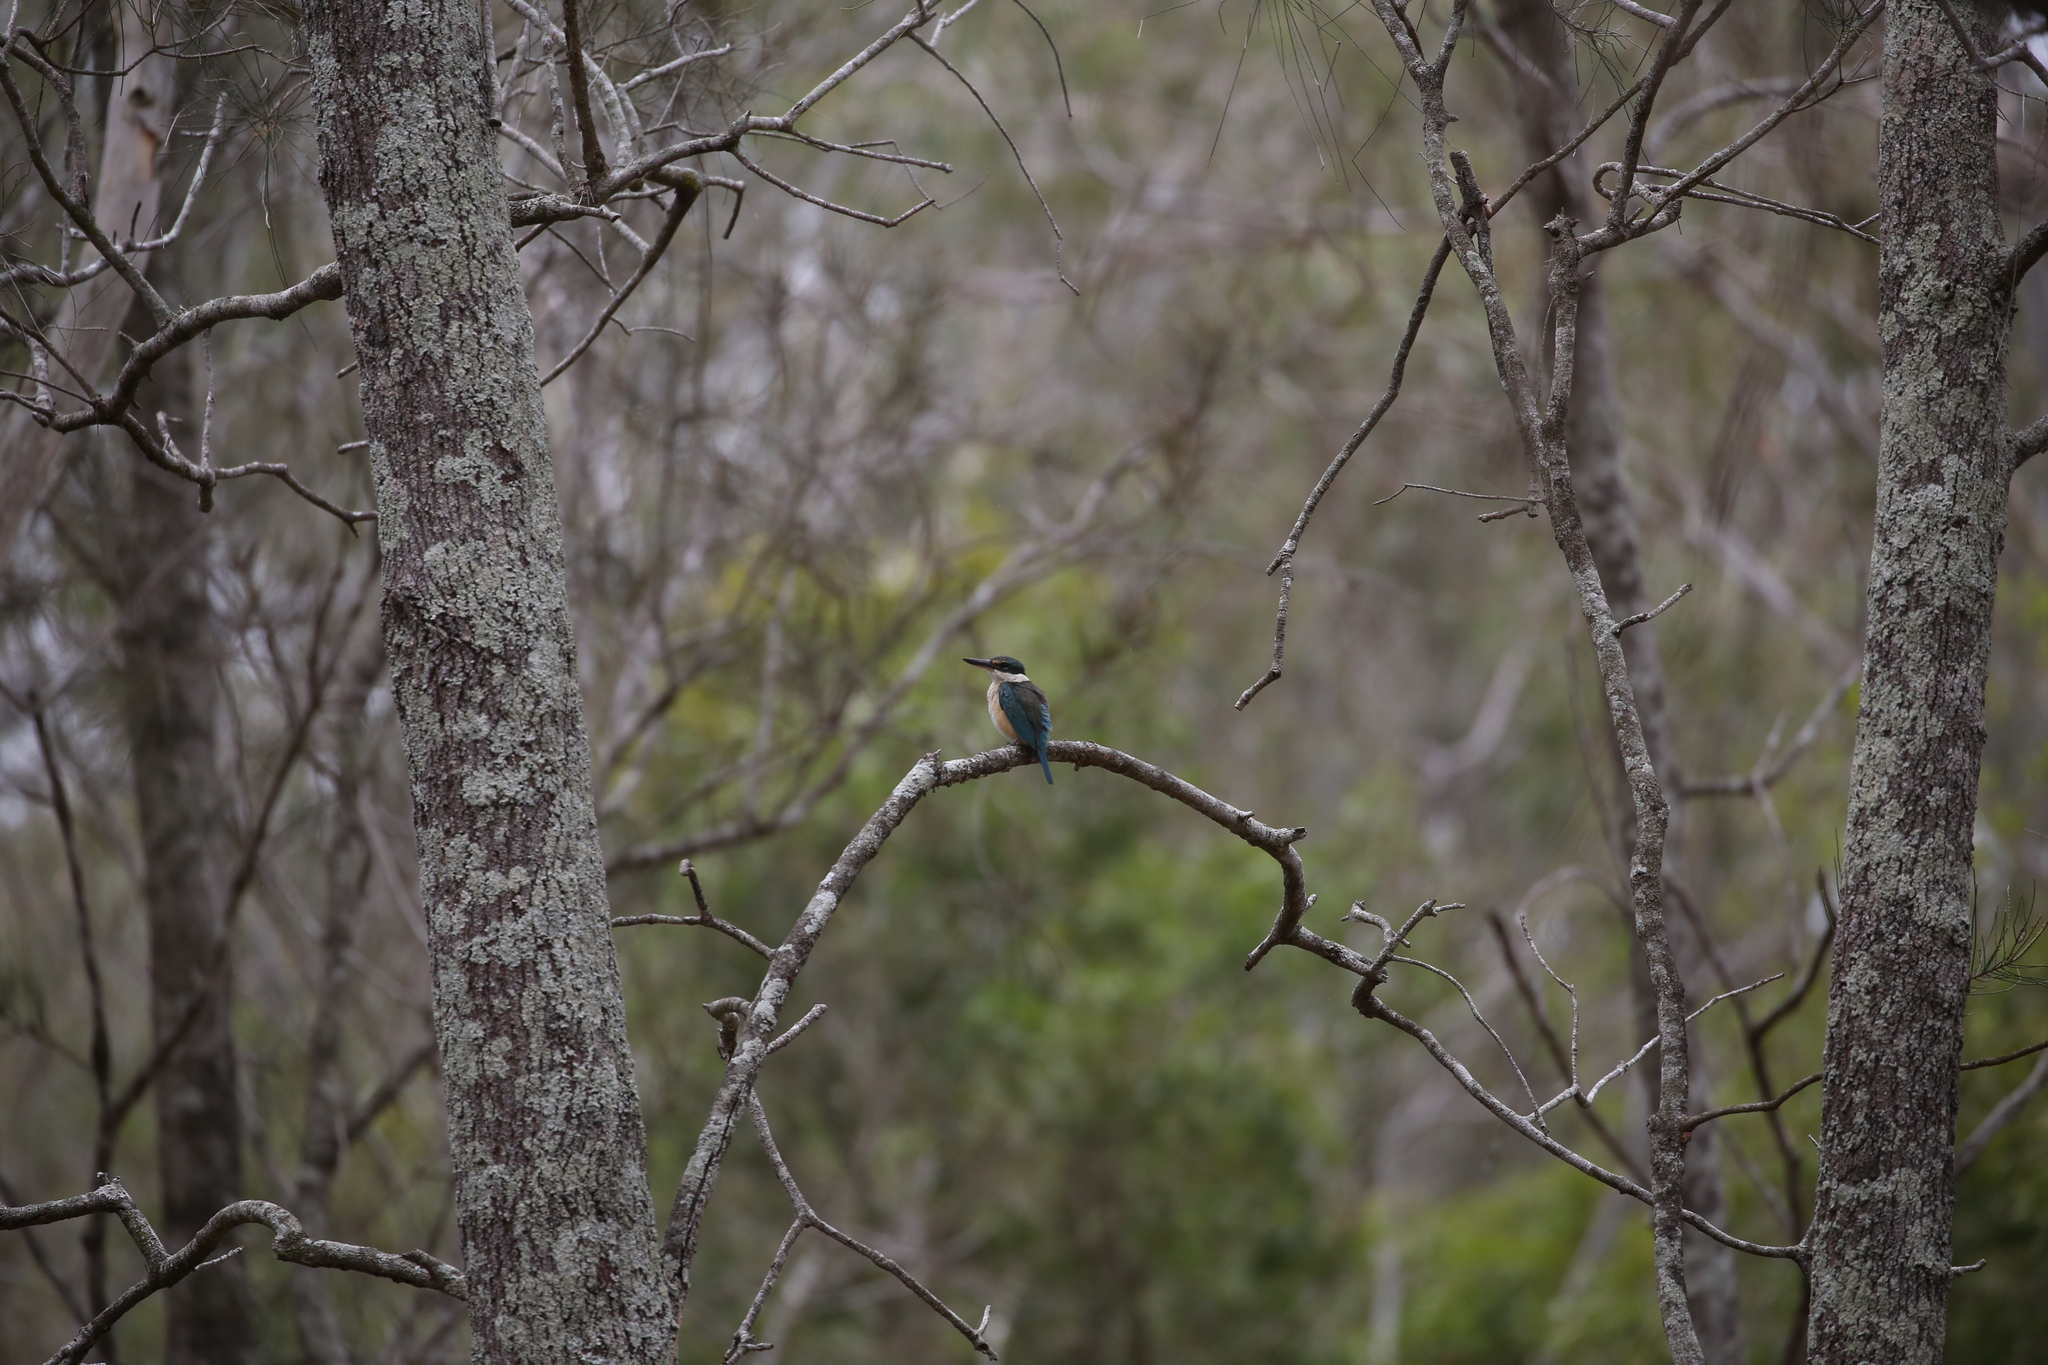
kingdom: Animalia
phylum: Chordata
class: Aves
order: Coraciiformes
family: Alcedinidae
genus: Todiramphus
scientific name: Todiramphus sanctus
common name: Sacred kingfisher
